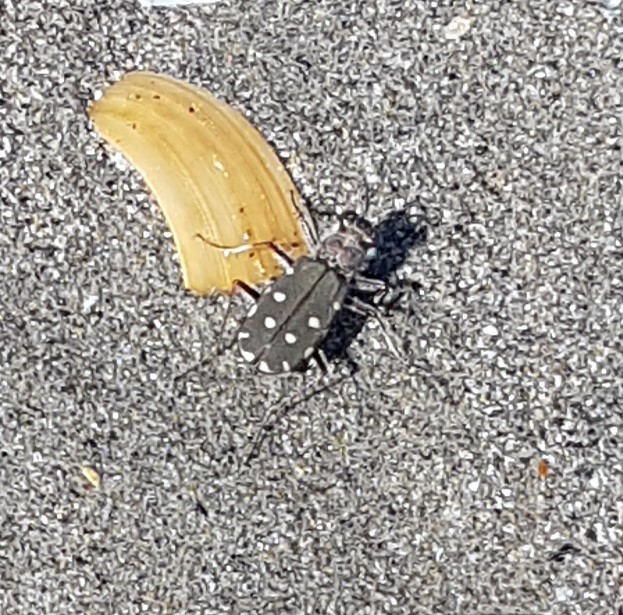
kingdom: Animalia
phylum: Arthropoda
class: Insecta
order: Coleoptera
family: Carabidae
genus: Cicindela
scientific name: Cicindela littoralis
